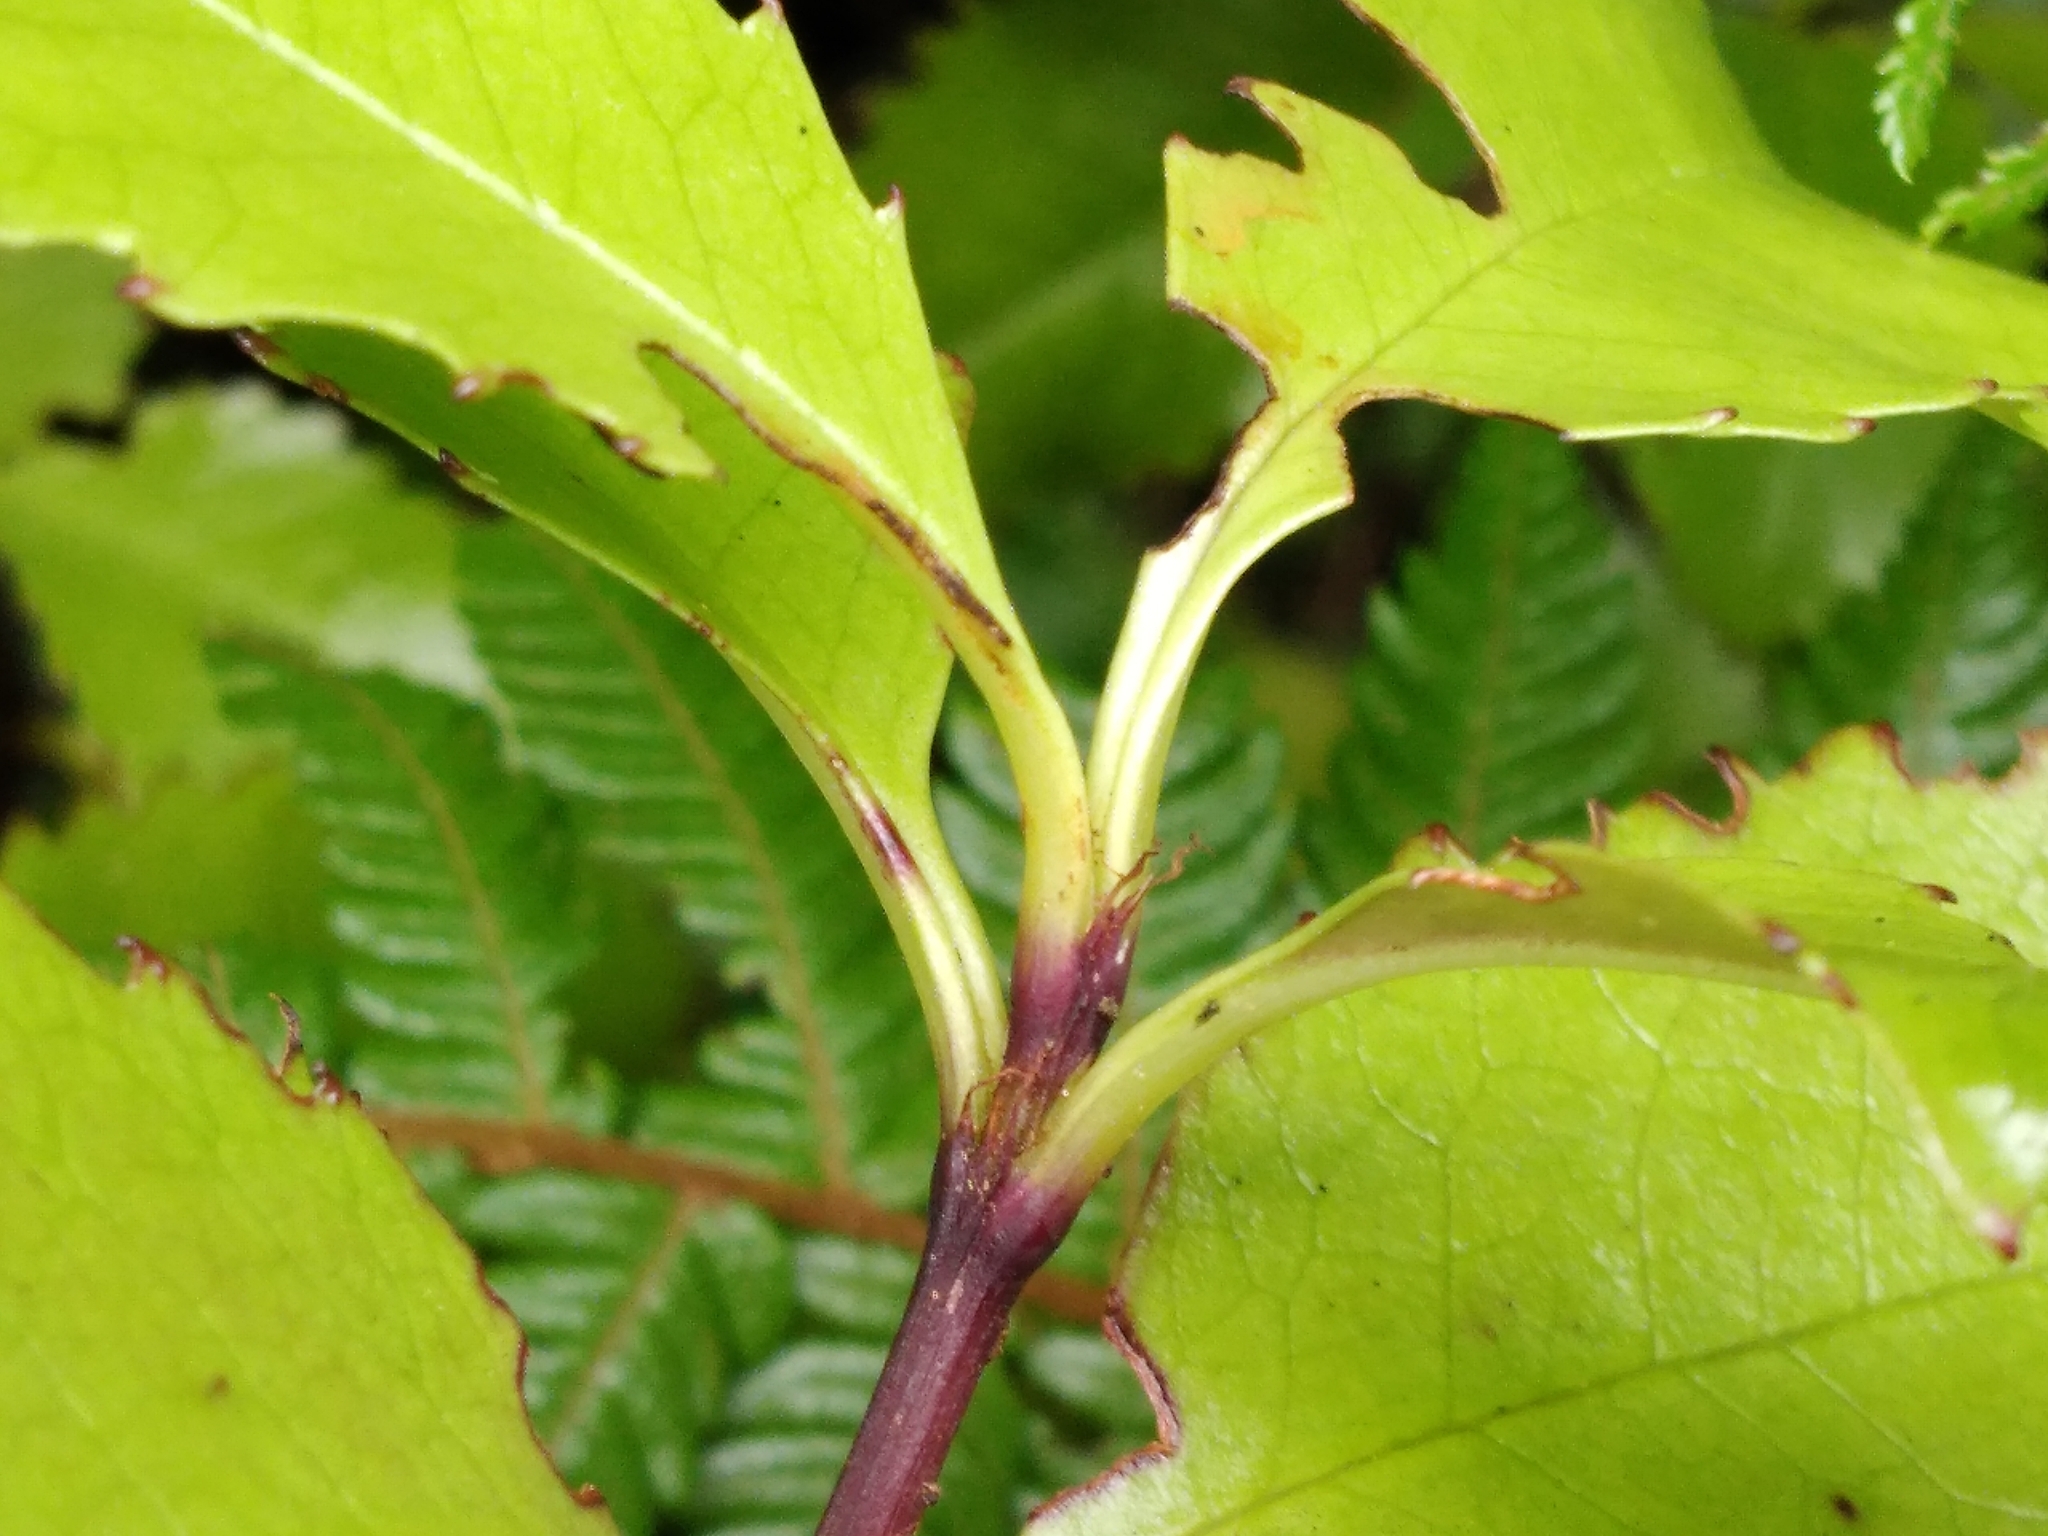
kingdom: Plantae
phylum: Tracheophyta
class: Magnoliopsida
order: Chloranthales
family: Chloranthaceae
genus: Ascarina
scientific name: Ascarina lucida
